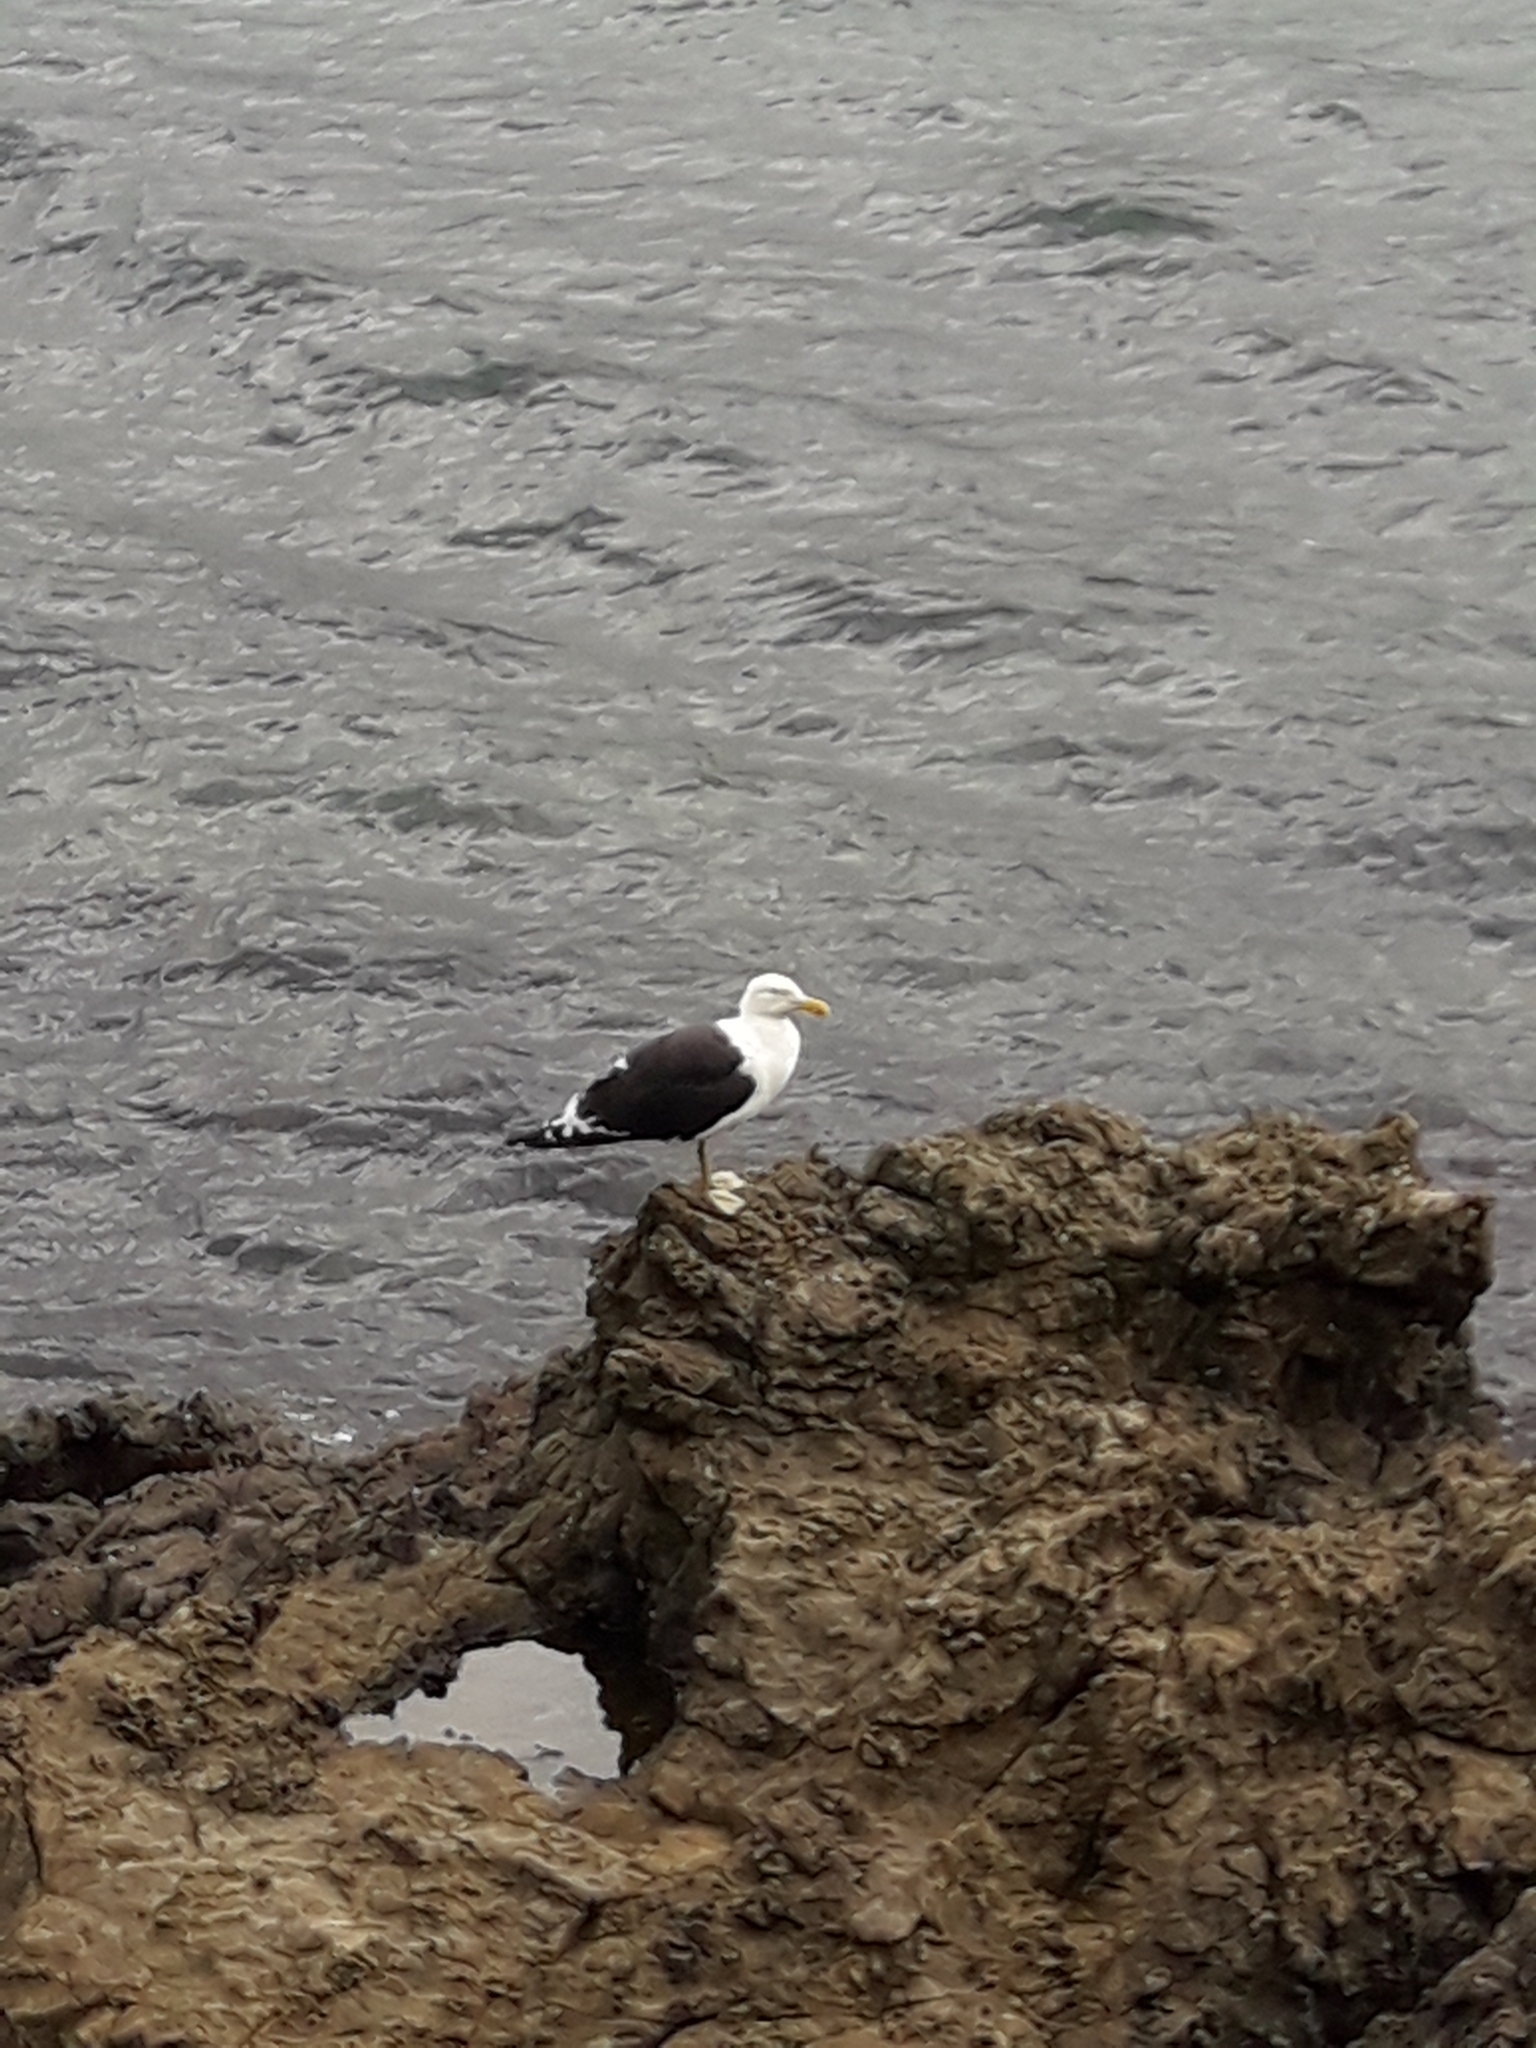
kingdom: Animalia
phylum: Chordata
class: Aves
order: Charadriiformes
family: Laridae
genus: Larus
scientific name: Larus dominicanus
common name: Kelp gull
